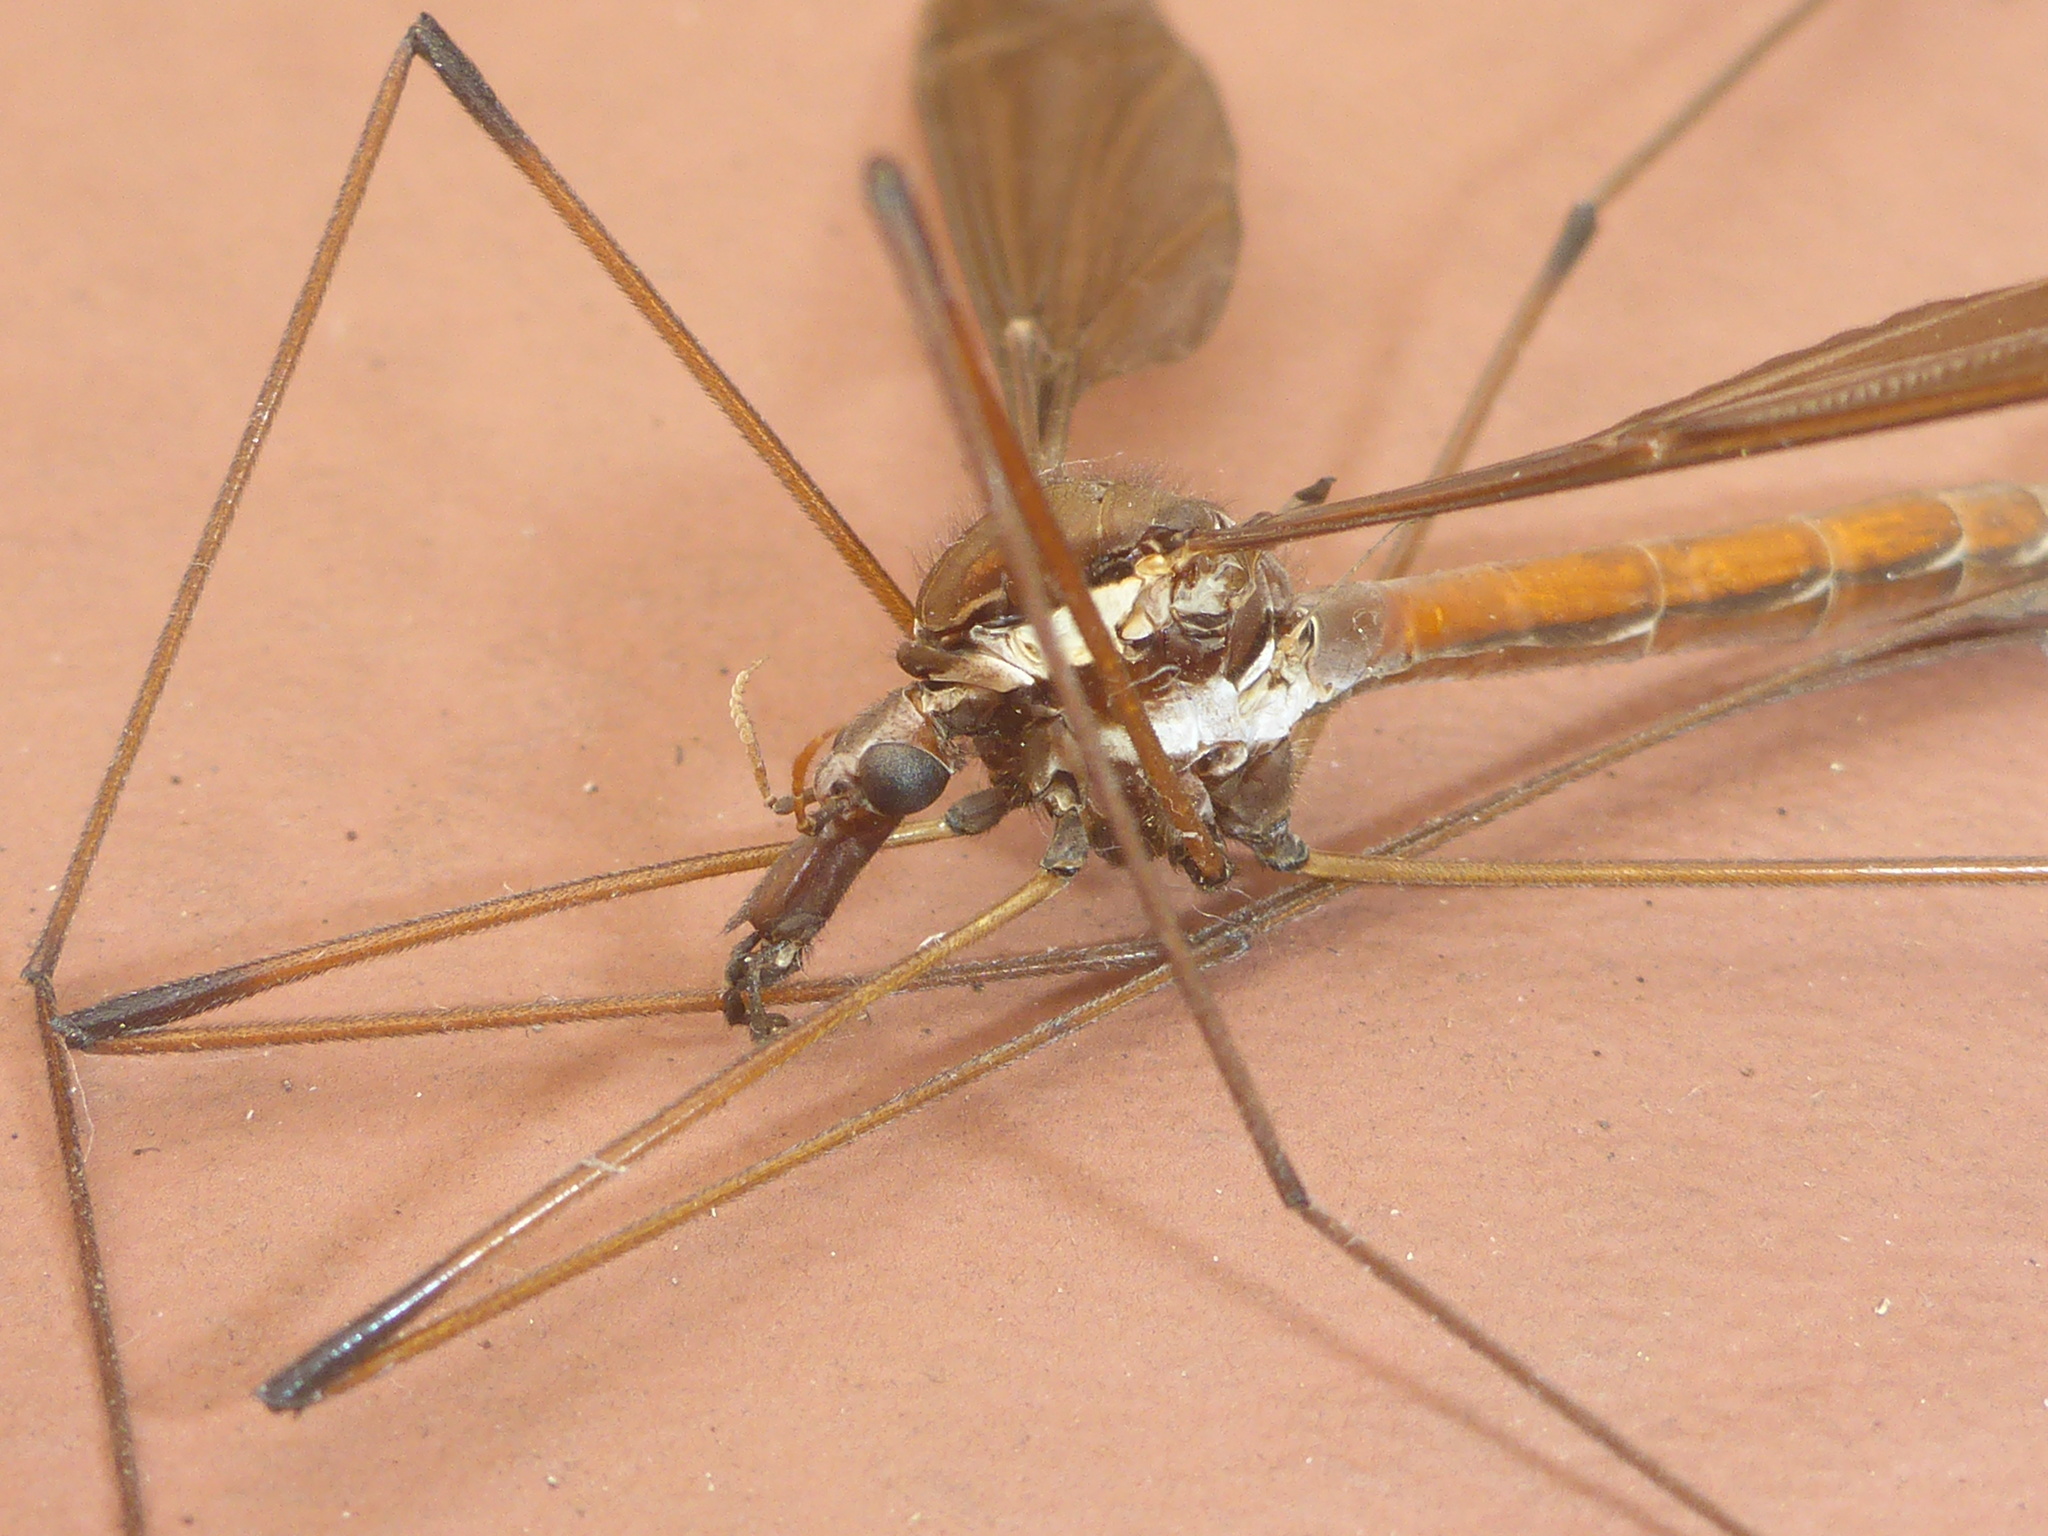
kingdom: Animalia
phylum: Arthropoda
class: Insecta
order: Diptera
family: Tipulidae
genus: Holorusia
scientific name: Holorusia hespera
